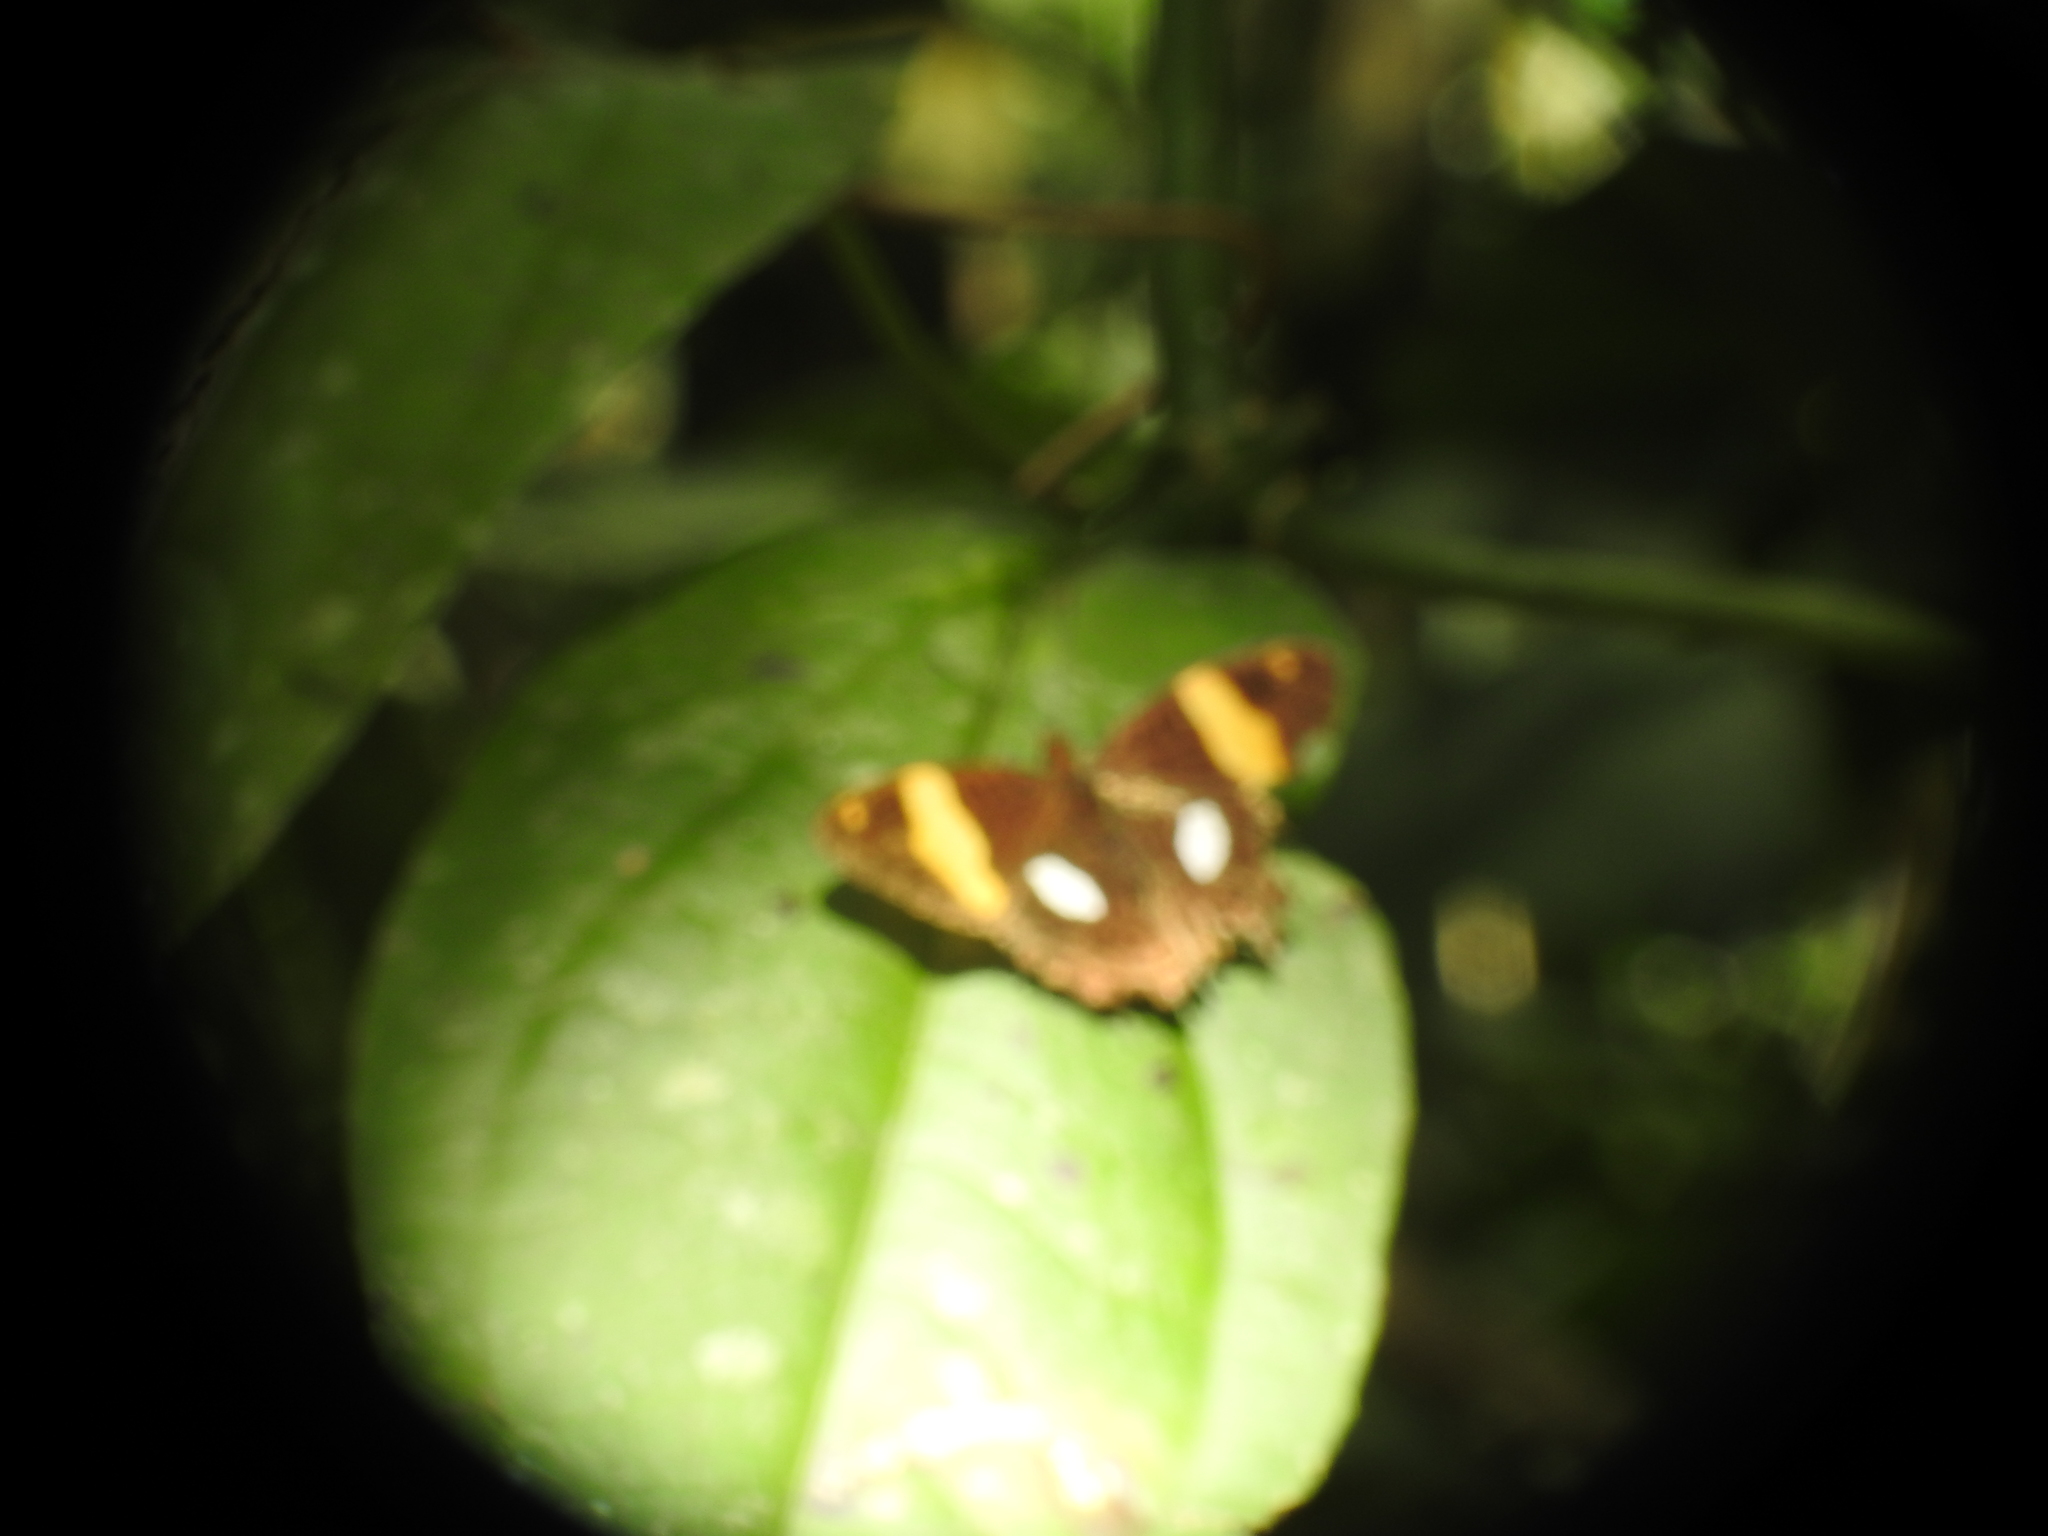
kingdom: Animalia
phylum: Arthropoda
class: Insecta
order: Lepidoptera
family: Nymphalidae
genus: Limenitis
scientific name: Limenitis zina
